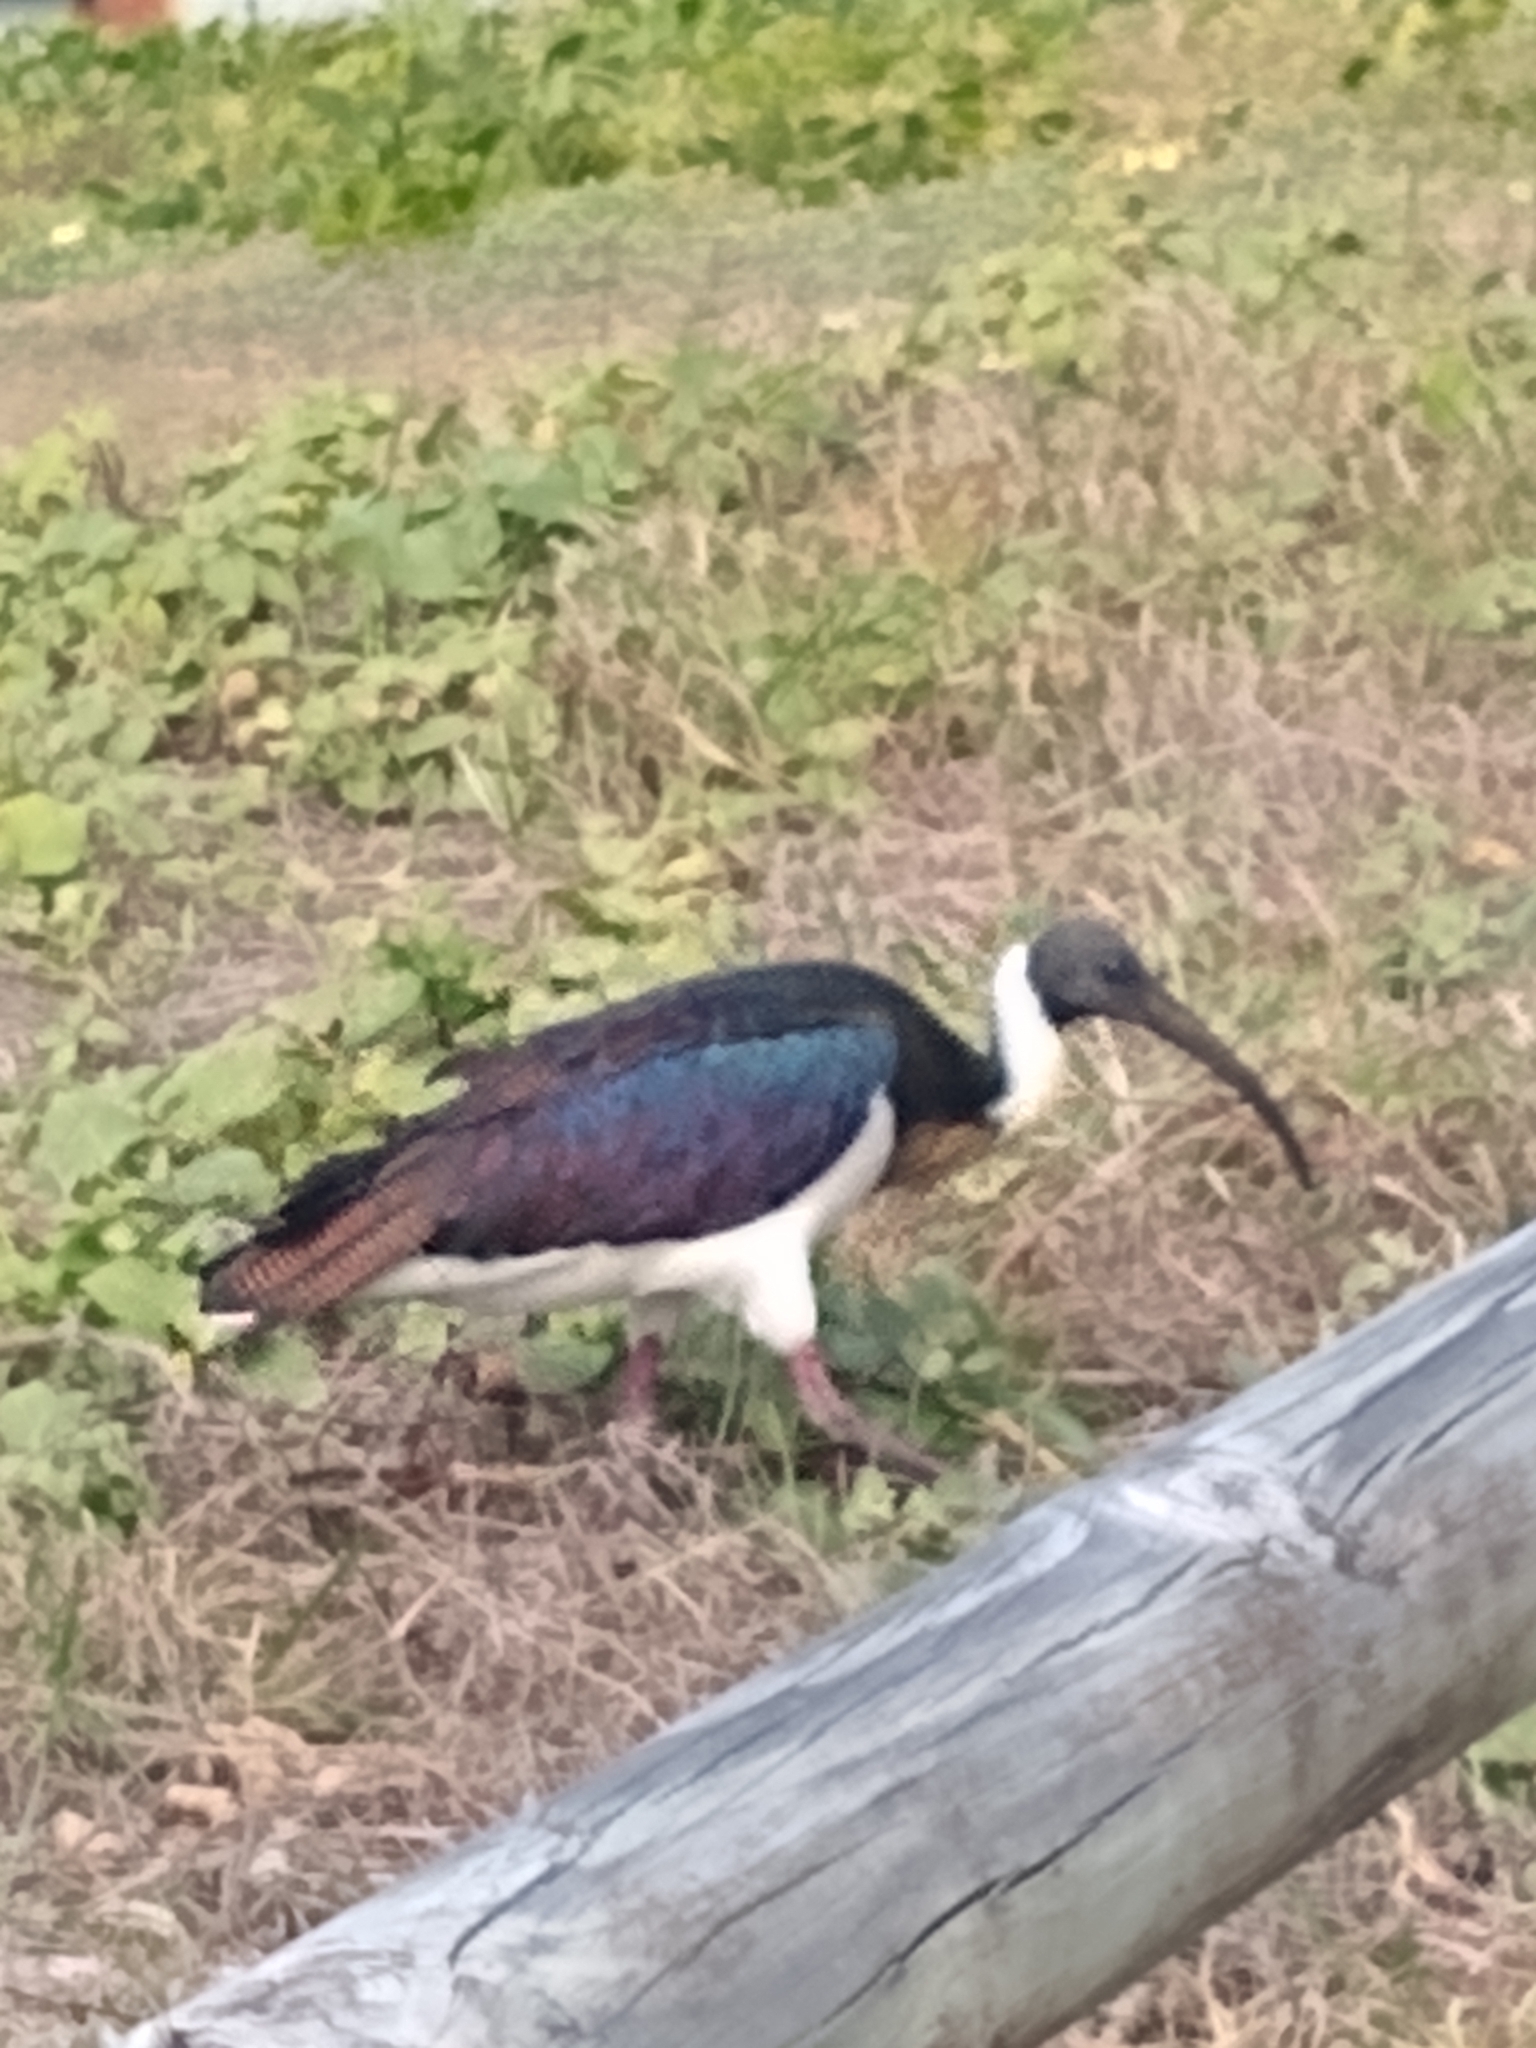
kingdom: Animalia
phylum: Chordata
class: Aves
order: Pelecaniformes
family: Threskiornithidae
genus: Threskiornis
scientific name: Threskiornis spinicollis
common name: Straw-necked ibis
